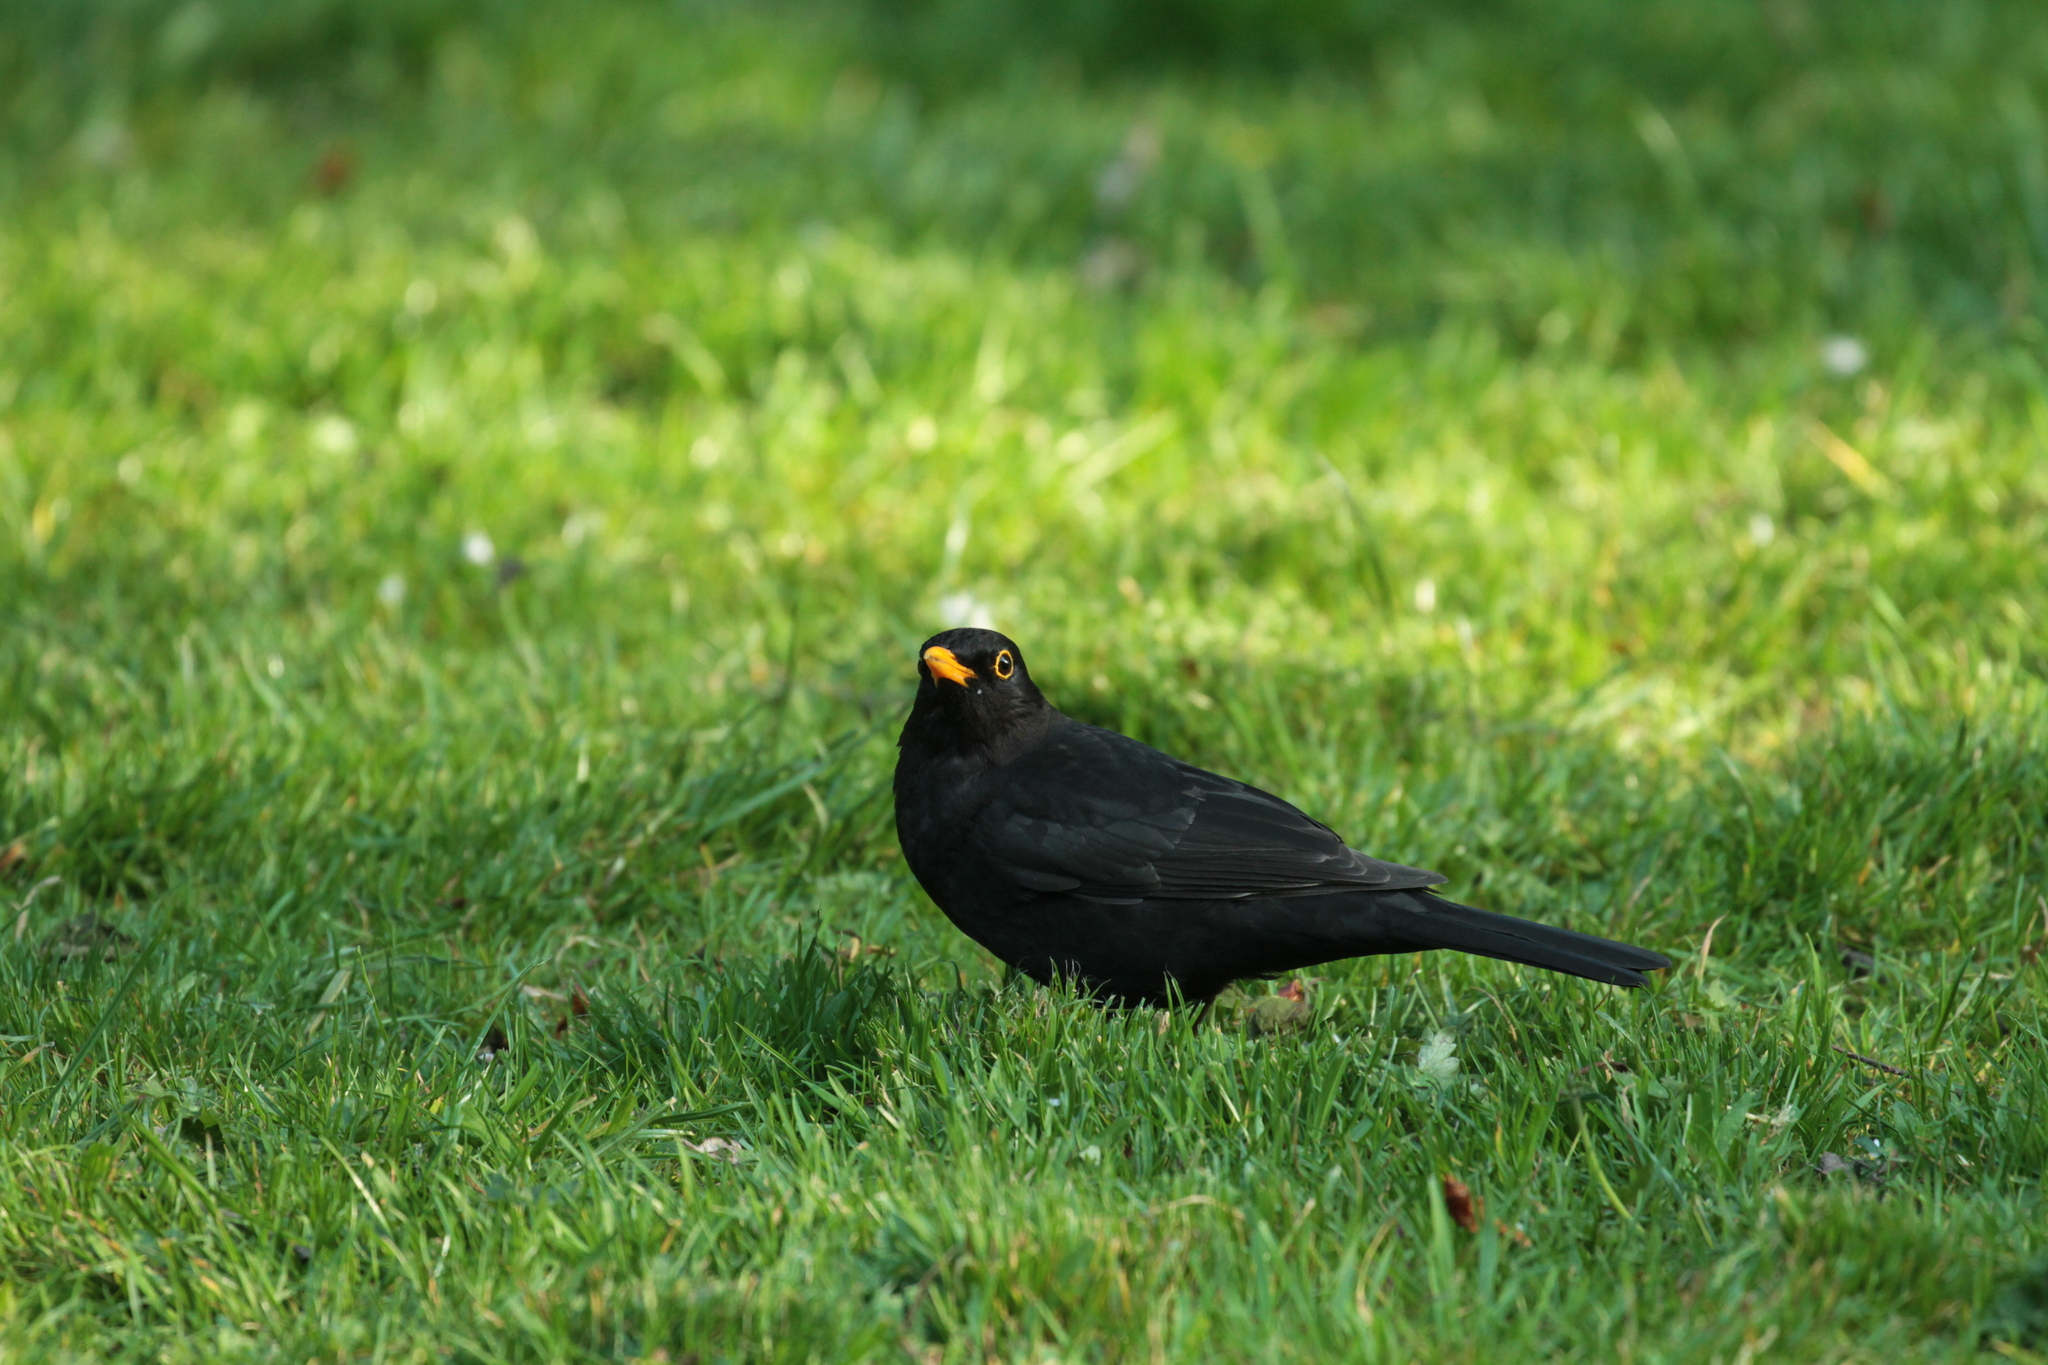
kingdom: Animalia
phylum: Chordata
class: Aves
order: Passeriformes
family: Turdidae
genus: Turdus
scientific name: Turdus merula
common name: Common blackbird
